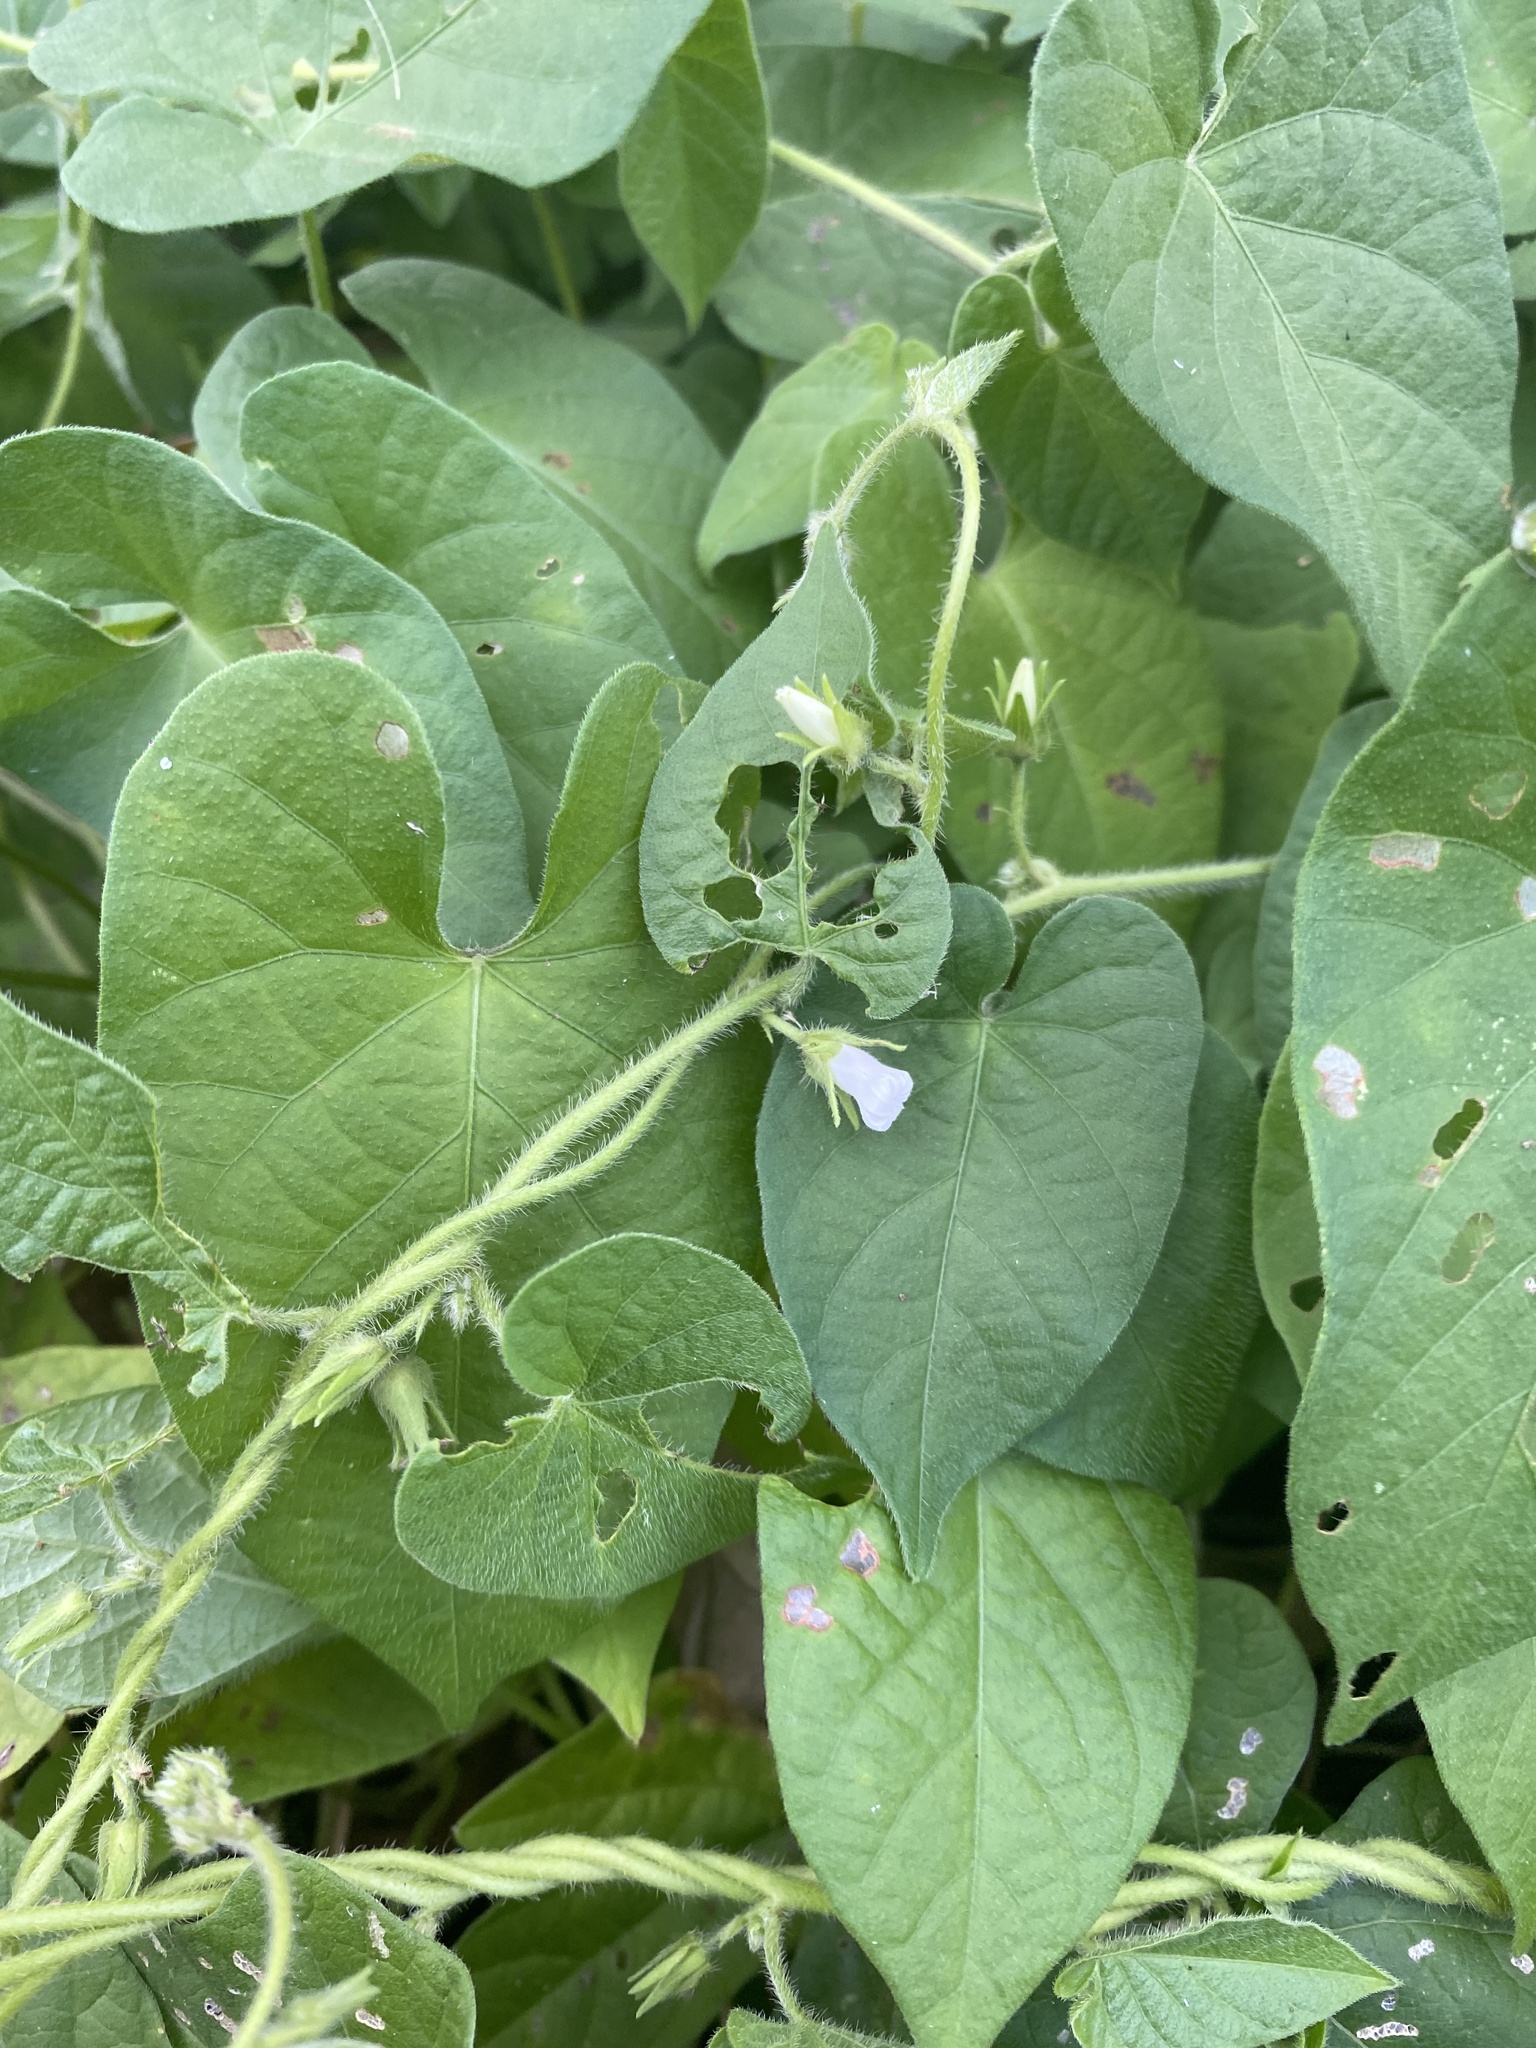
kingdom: Plantae
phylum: Tracheophyta
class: Magnoliopsida
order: Solanales
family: Convolvulaceae
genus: Ipomoea
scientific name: Ipomoea biflora
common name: Bellvine
